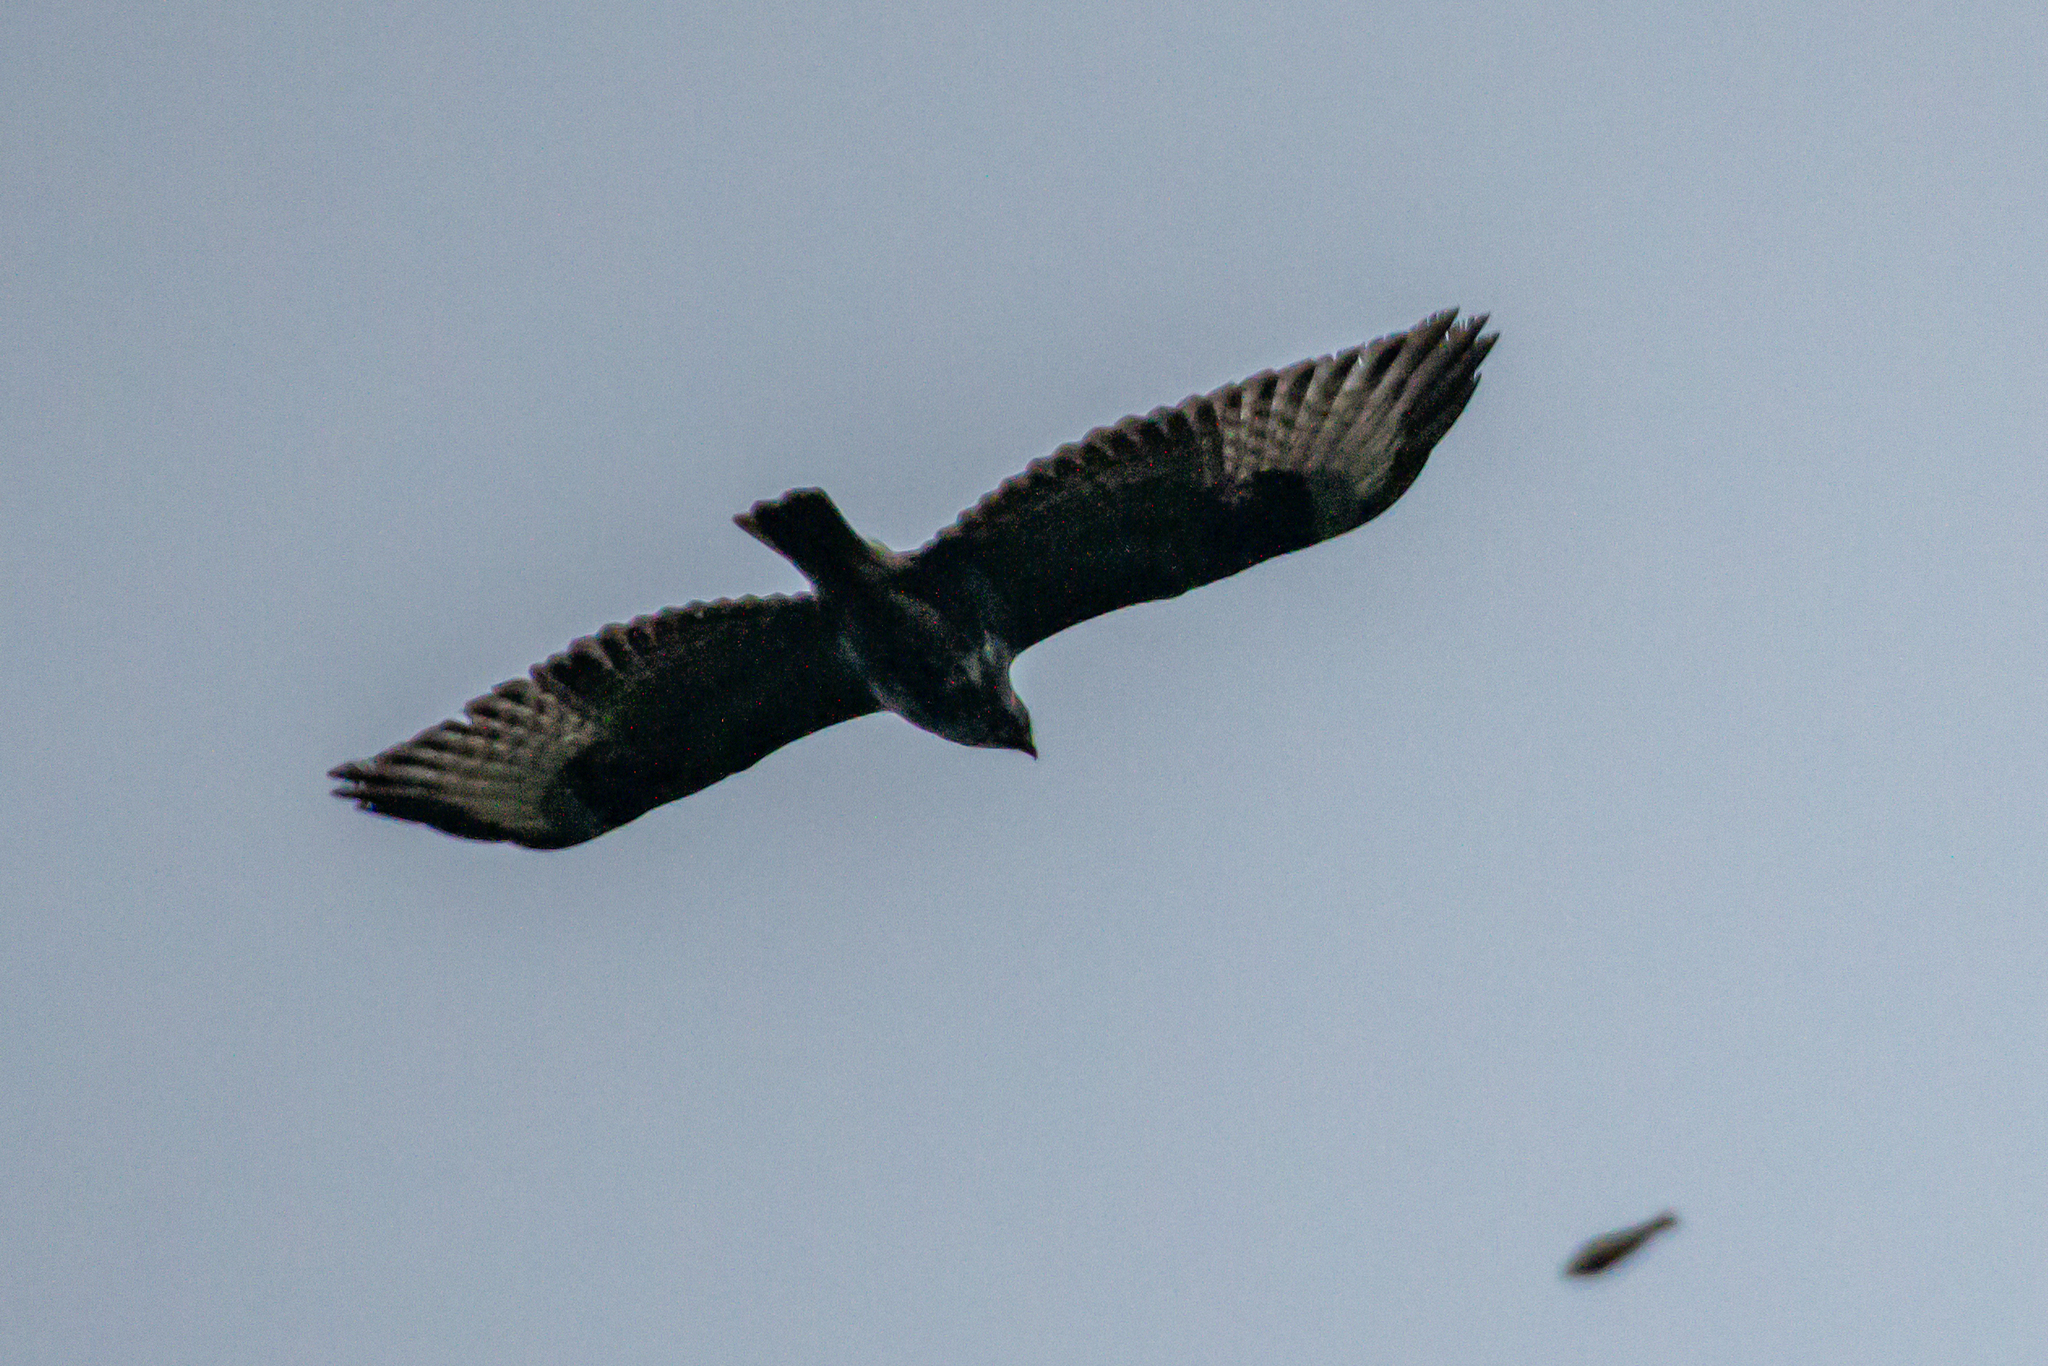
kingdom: Animalia
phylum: Chordata
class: Aves
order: Accipitriformes
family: Accipitridae
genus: Buteo
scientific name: Buteo buteo
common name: Common buzzard
